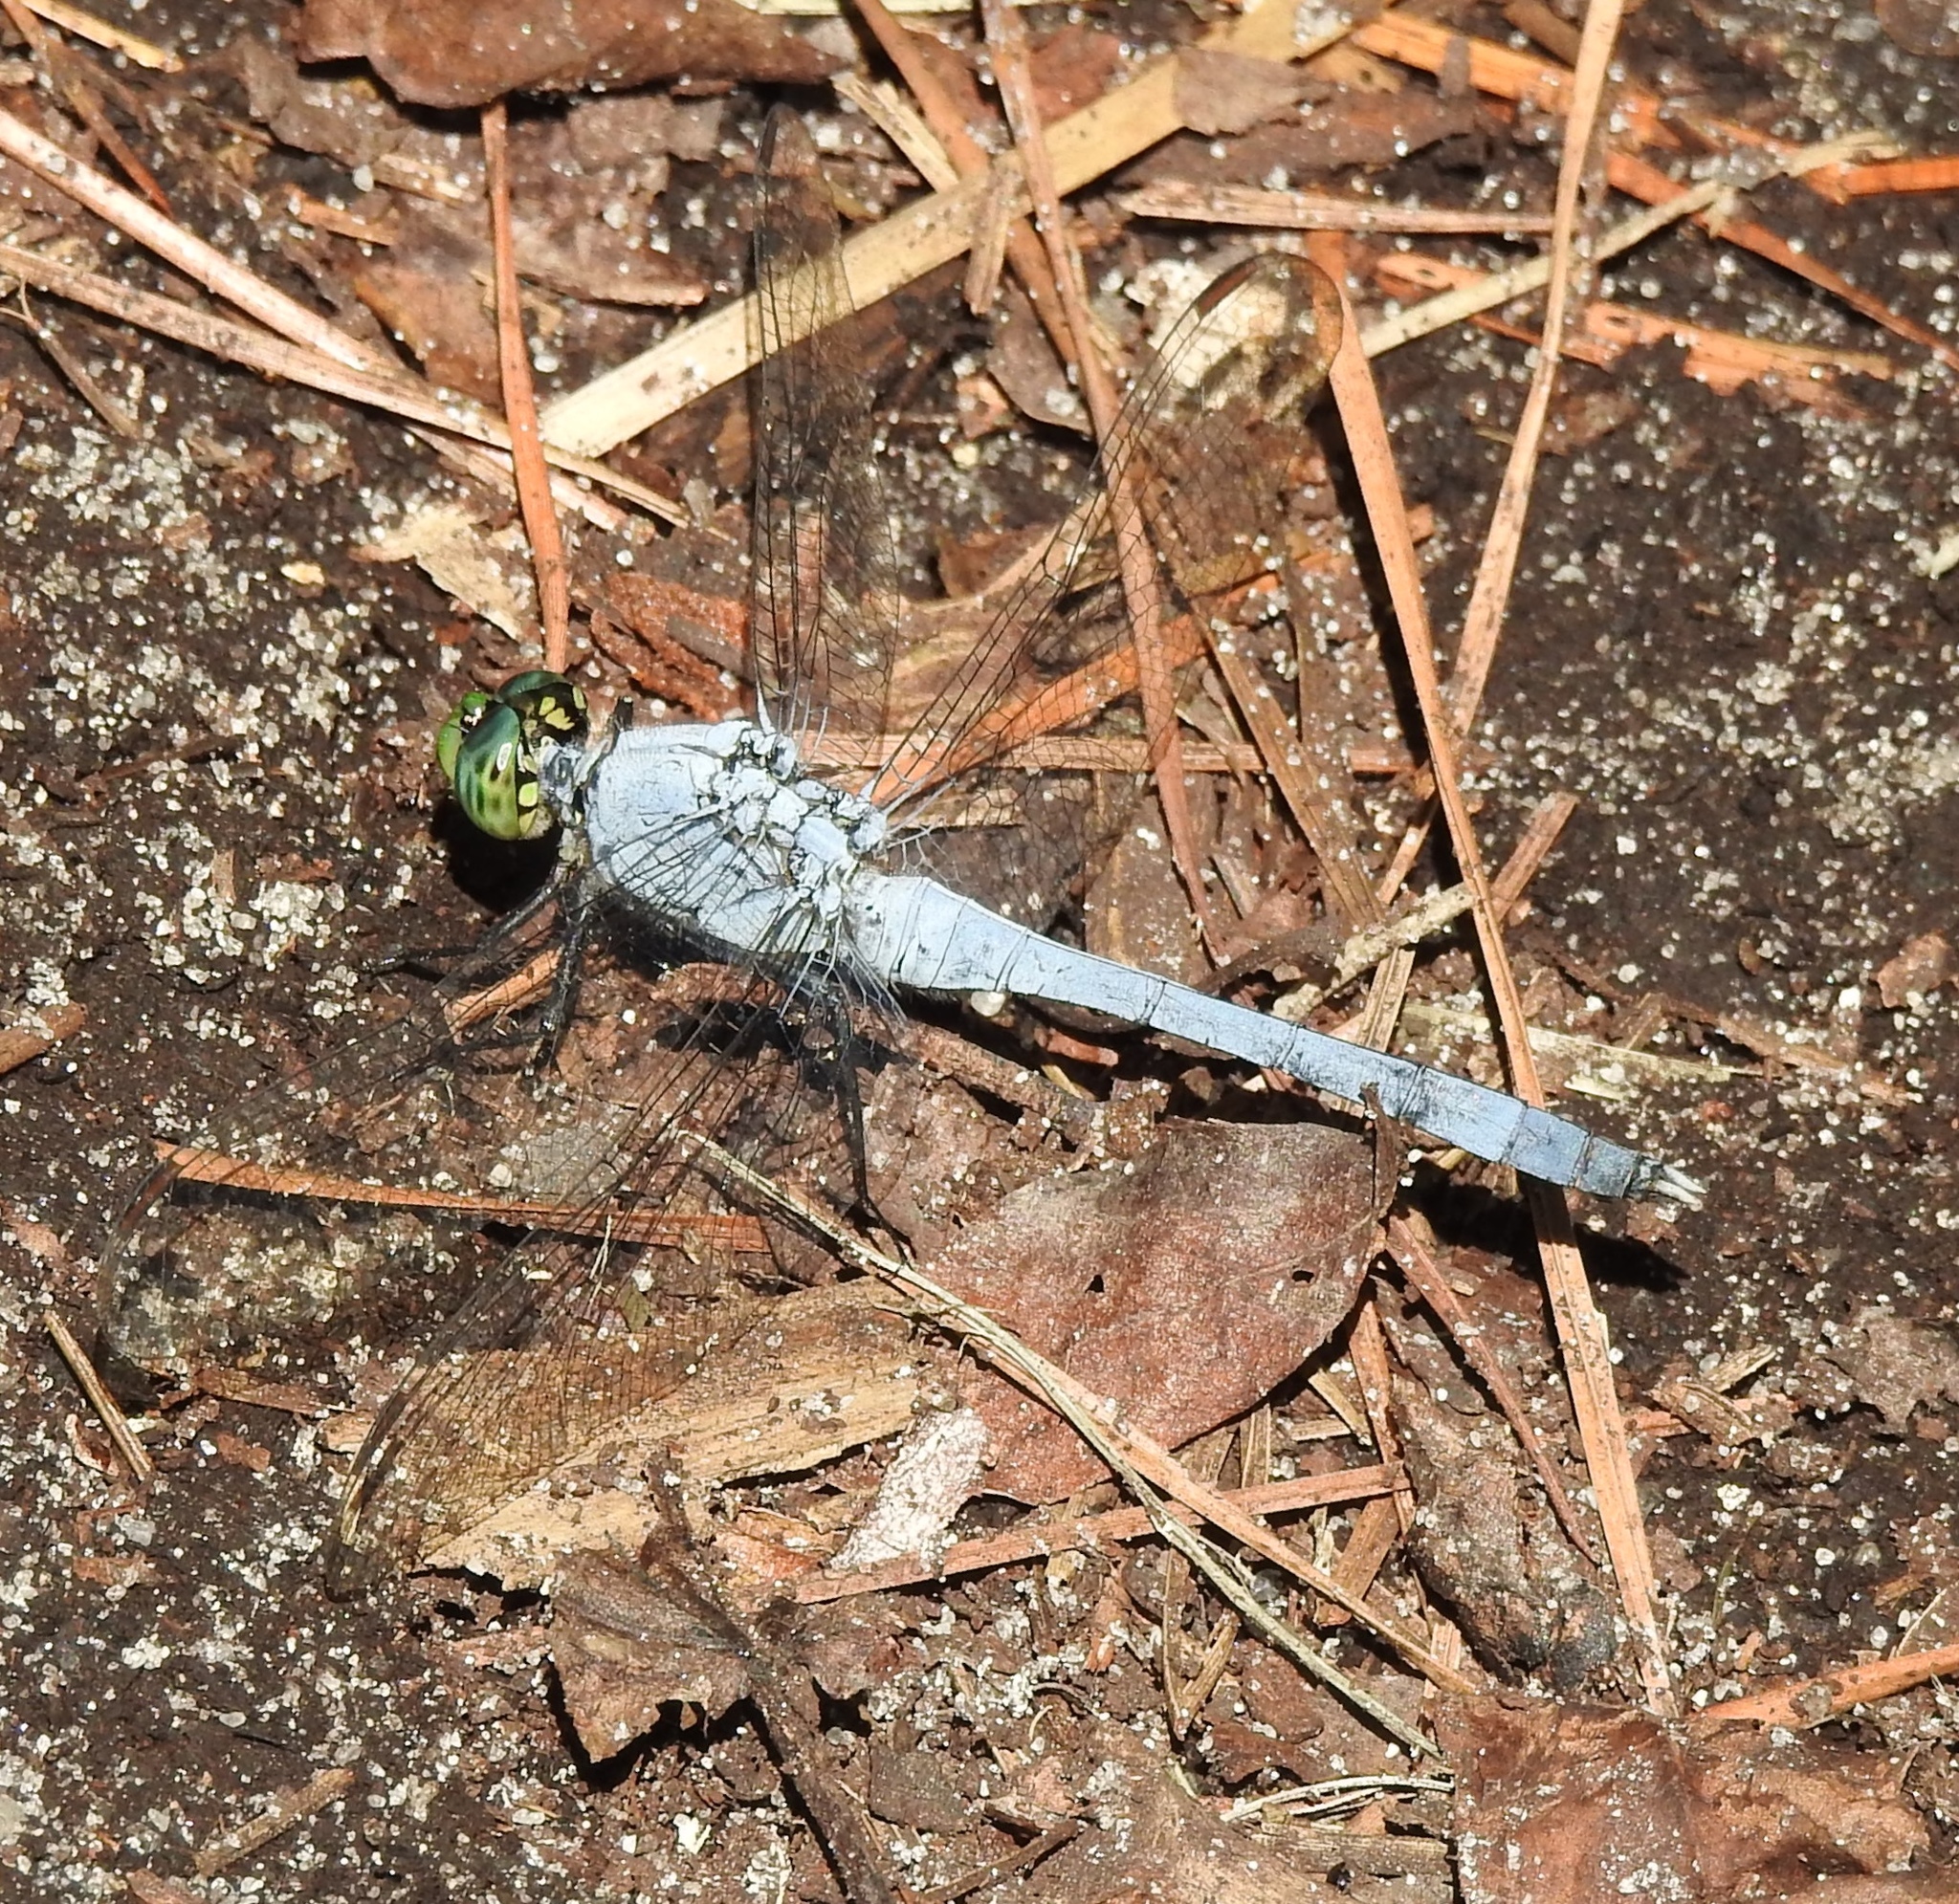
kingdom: Animalia
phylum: Arthropoda
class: Insecta
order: Odonata
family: Libellulidae
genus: Erythemis
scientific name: Erythemis simplicicollis
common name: Eastern pondhawk
